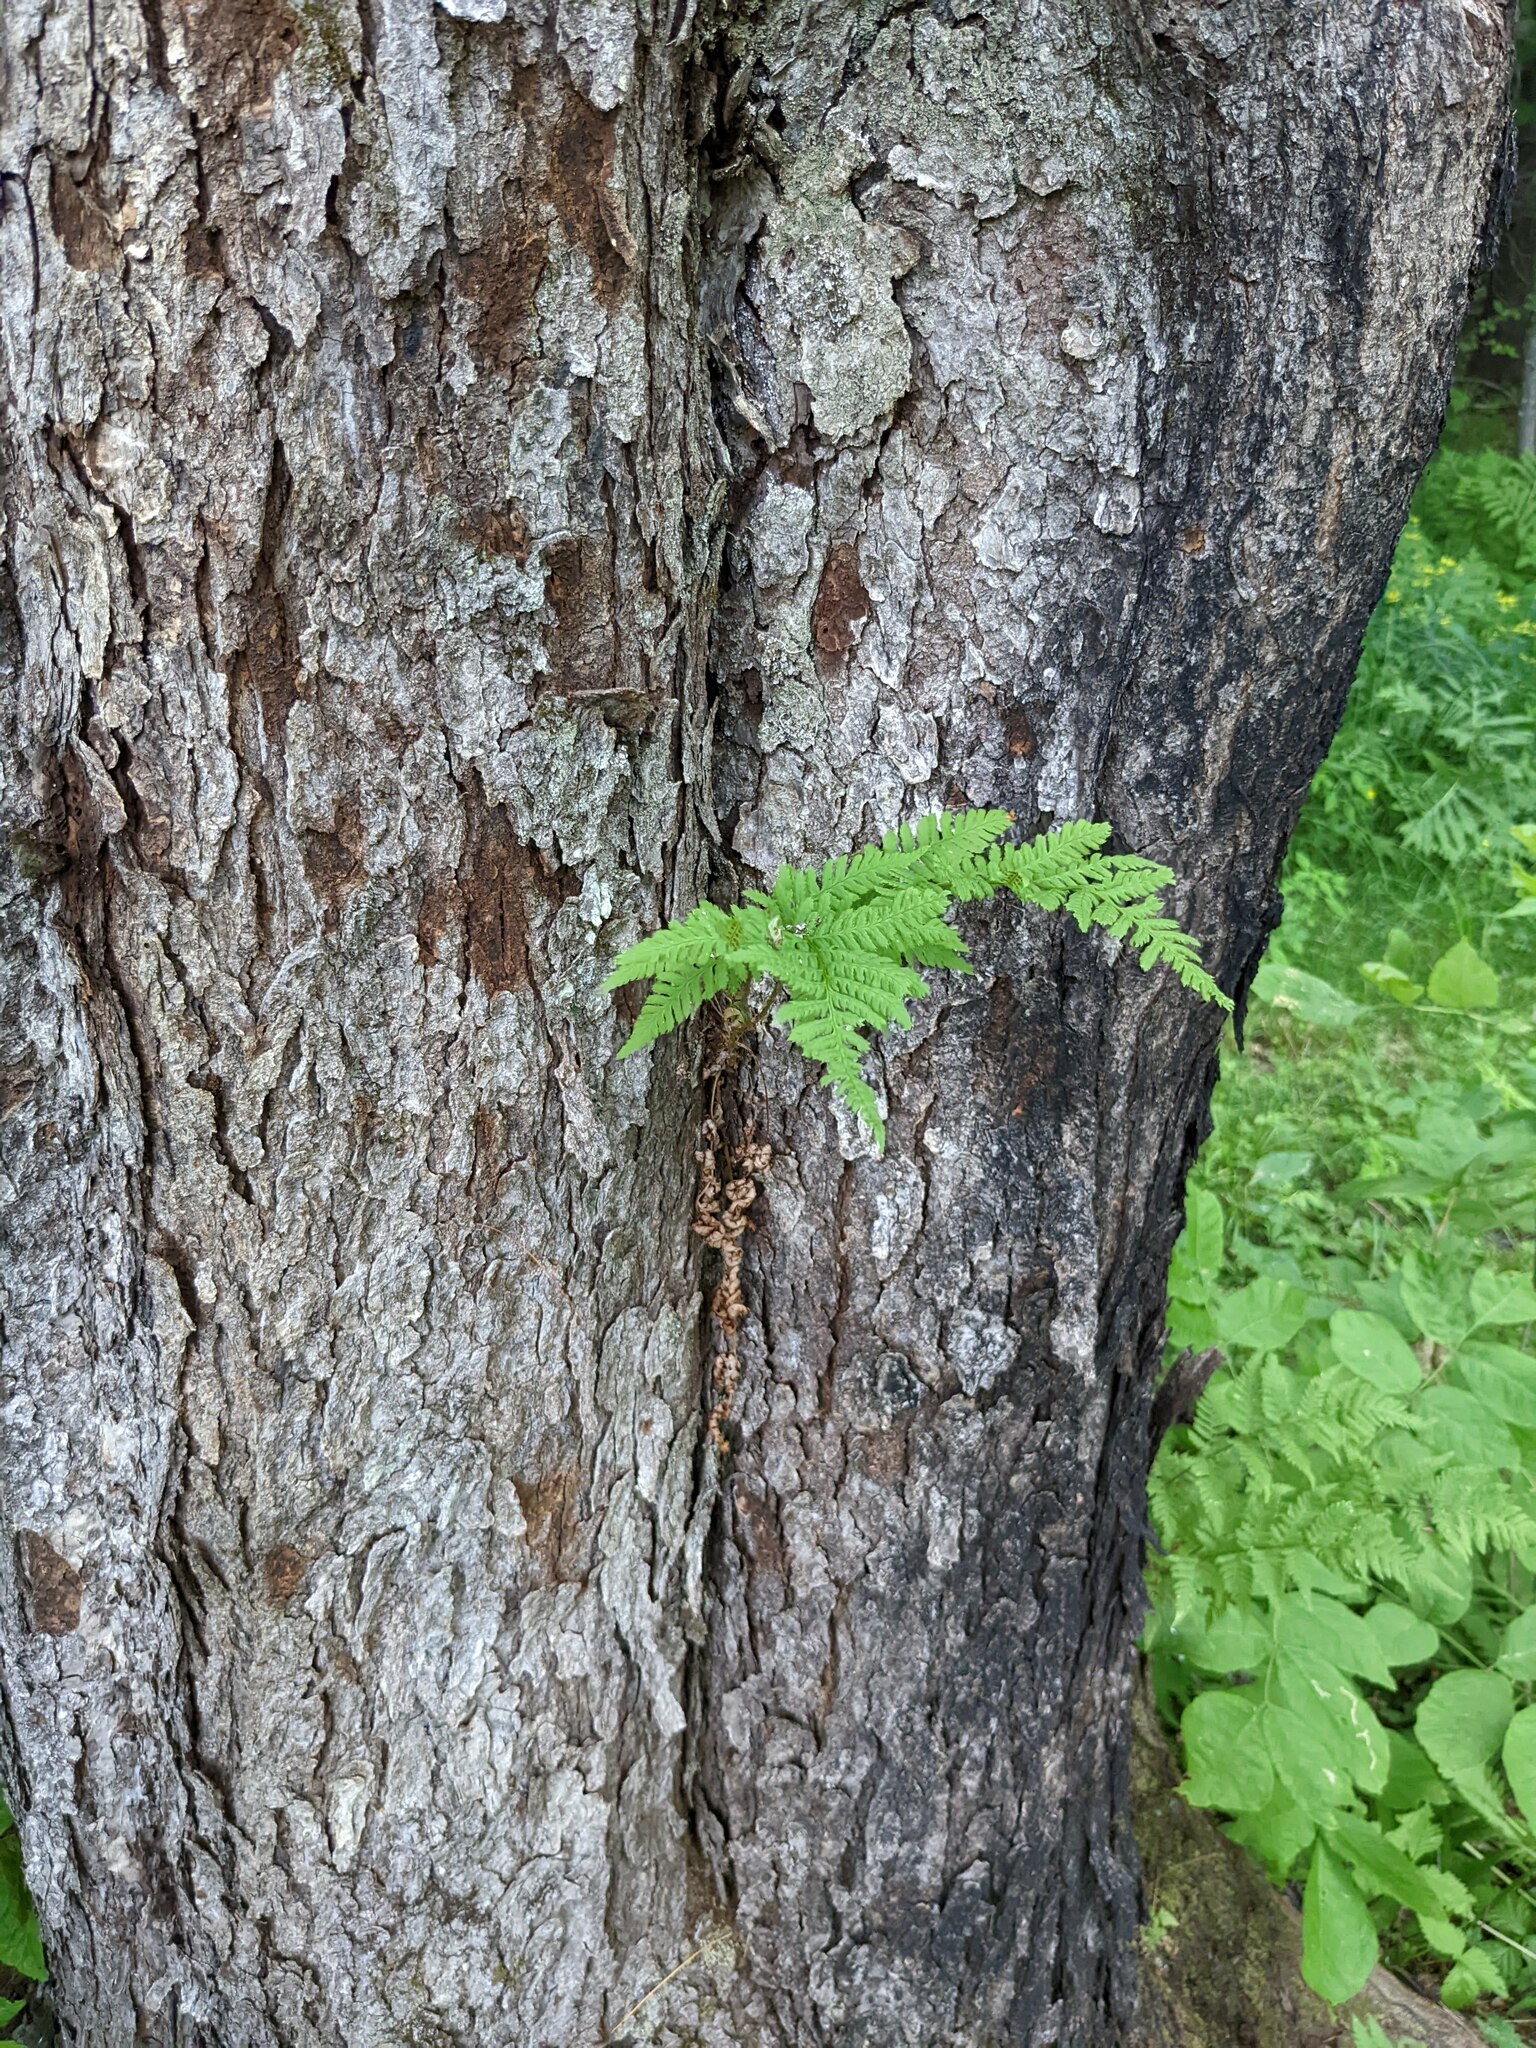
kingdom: Plantae
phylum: Tracheophyta
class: Polypodiopsida
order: Polypodiales
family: Dryopteridaceae
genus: Dryopteris
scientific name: Dryopteris carthusiana
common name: Narrow buckler-fern
